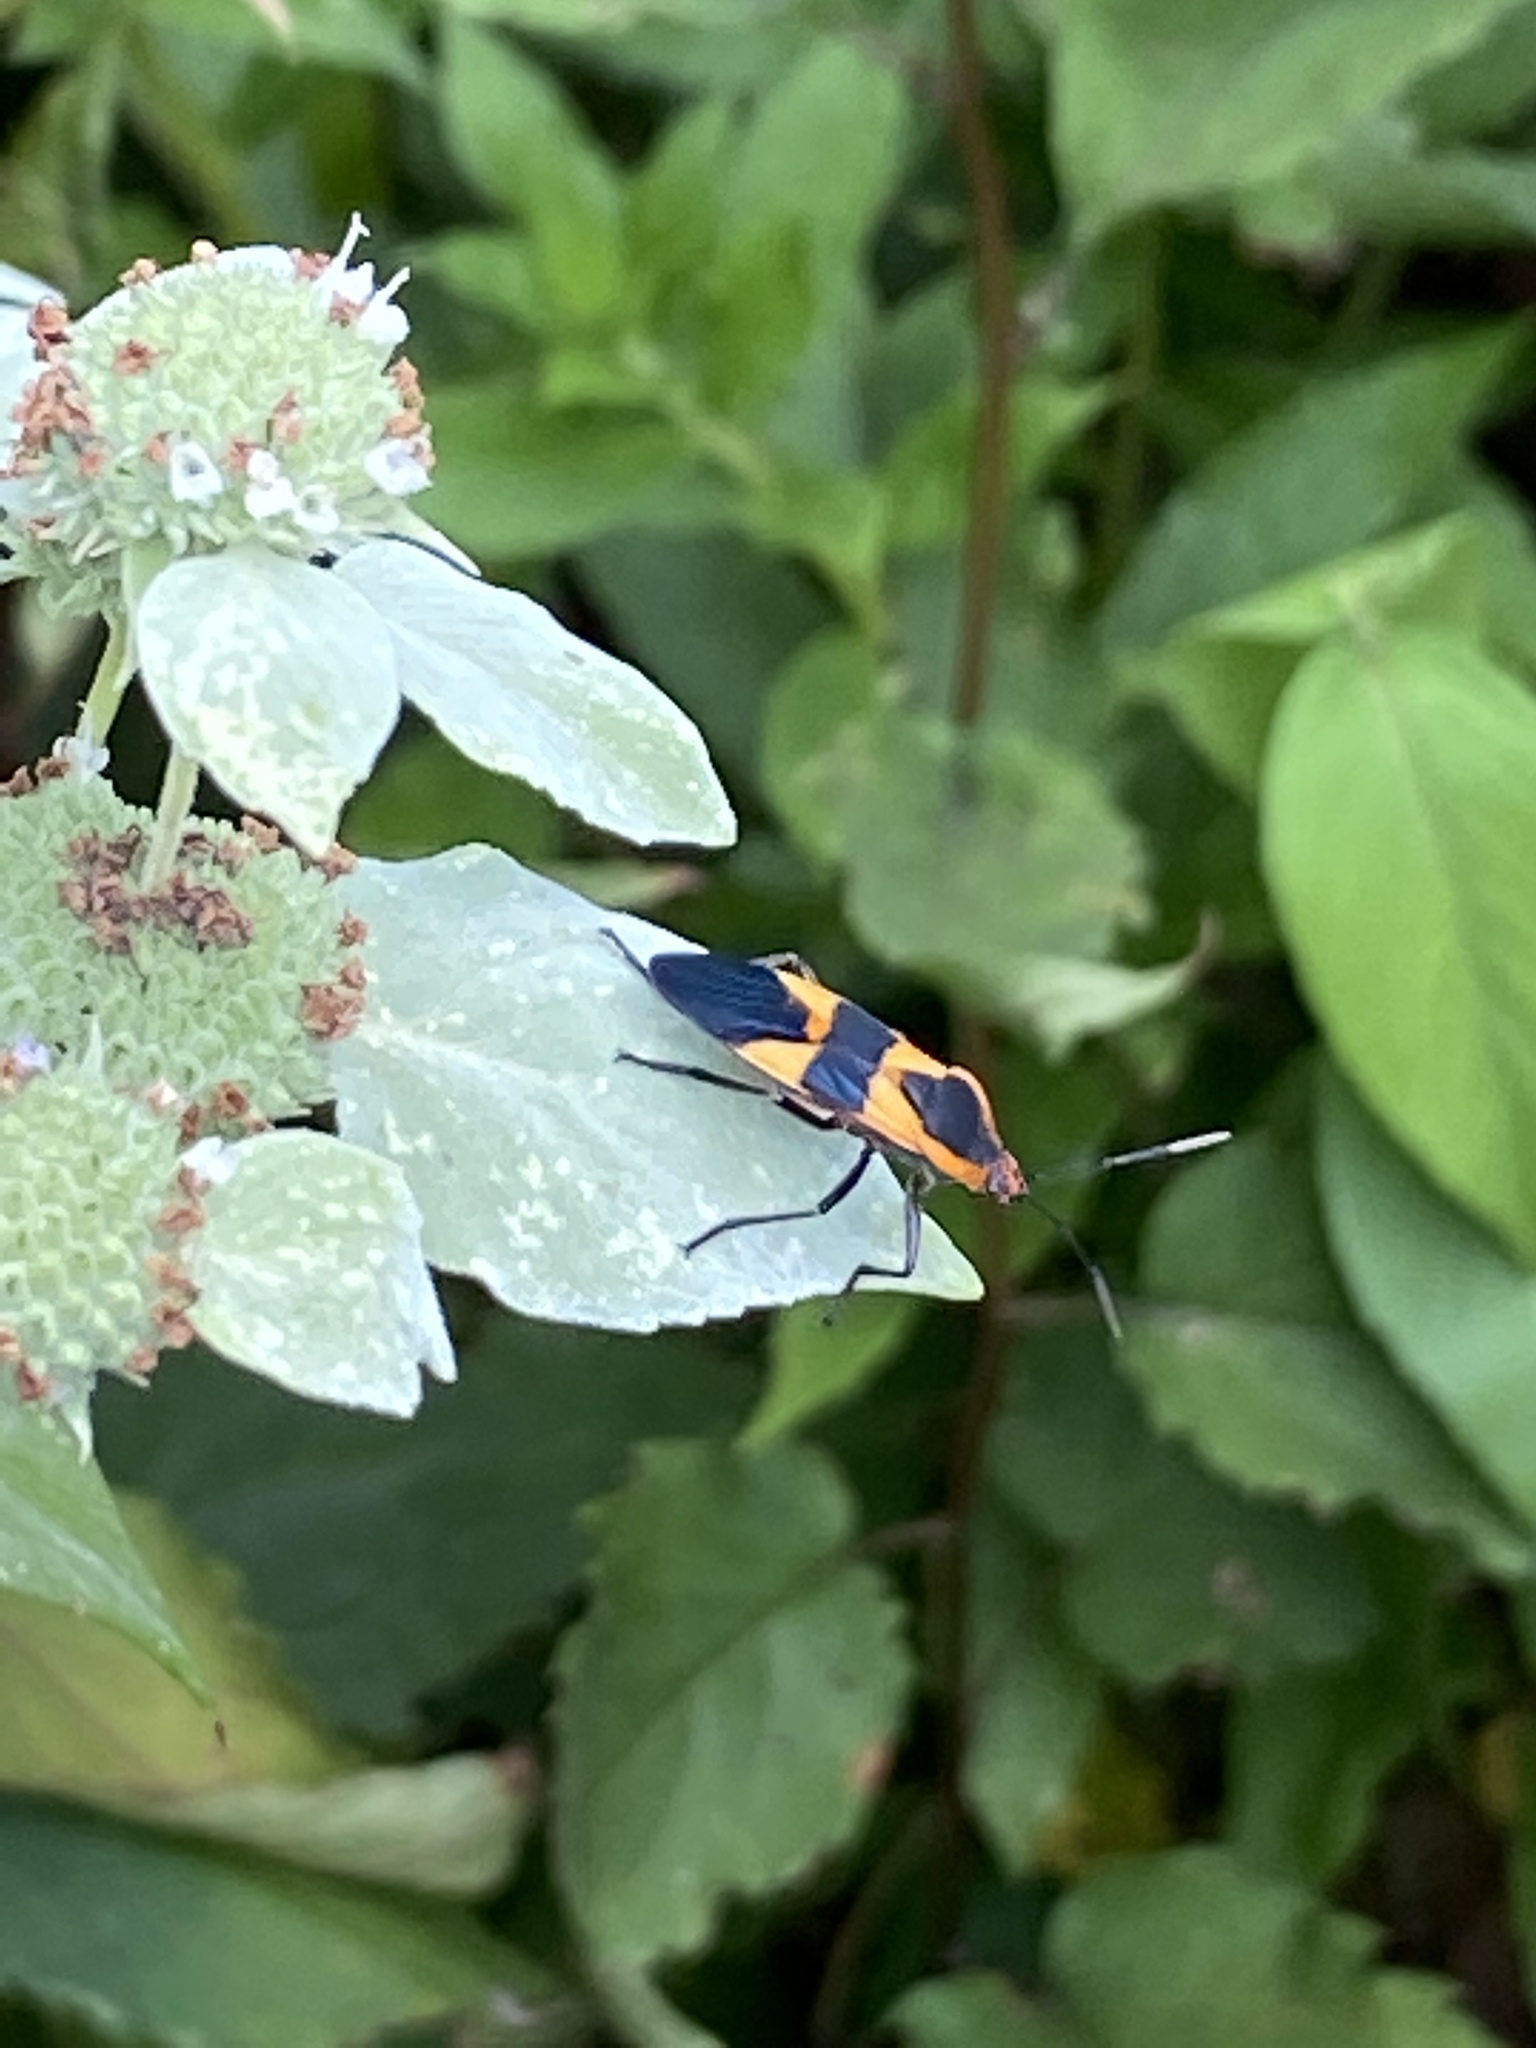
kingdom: Animalia
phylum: Arthropoda
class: Insecta
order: Hemiptera
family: Lygaeidae
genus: Oncopeltus
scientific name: Oncopeltus fasciatus
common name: Large milkweed bug
